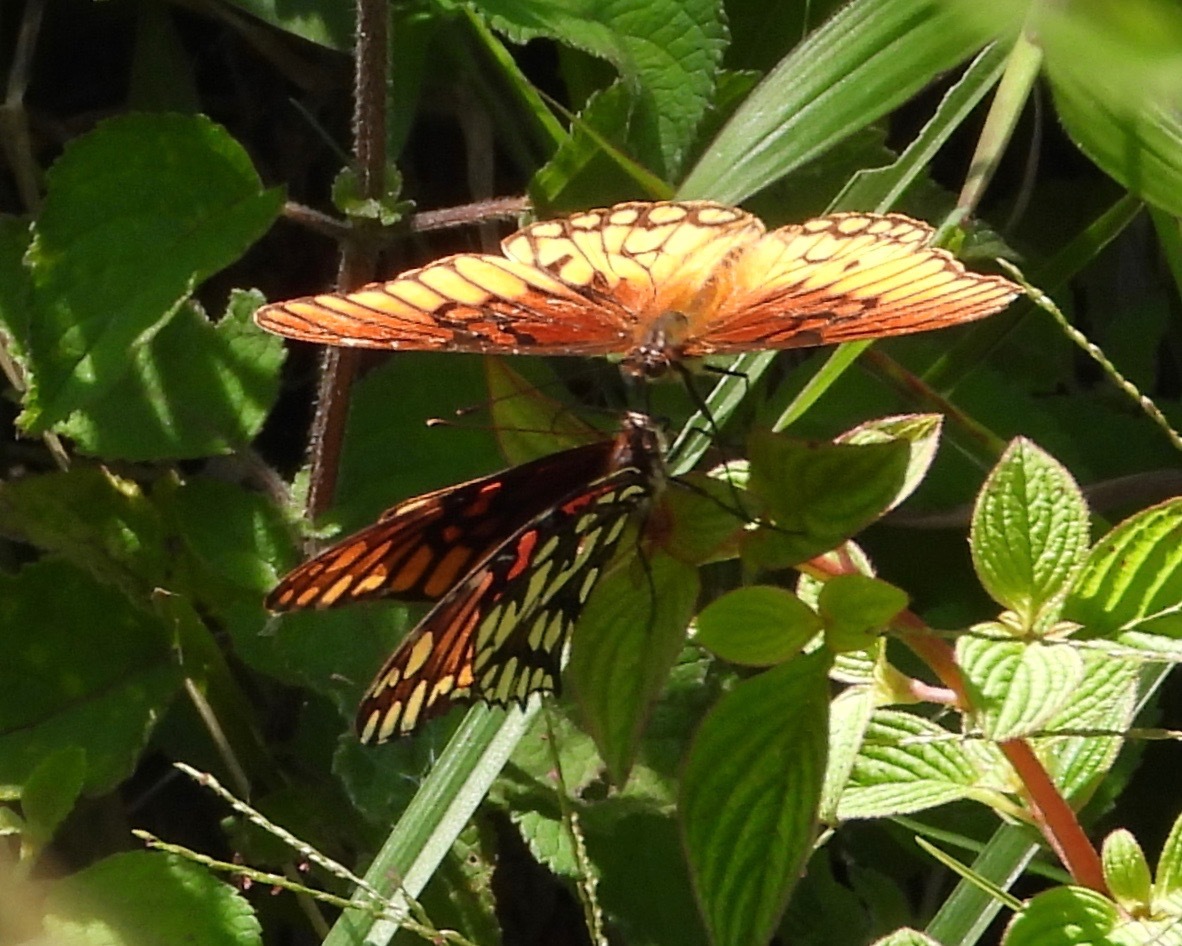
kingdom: Animalia
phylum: Arthropoda
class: Insecta
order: Lepidoptera
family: Nymphalidae
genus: Dione
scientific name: Dione moneta
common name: Mexican silverspot
